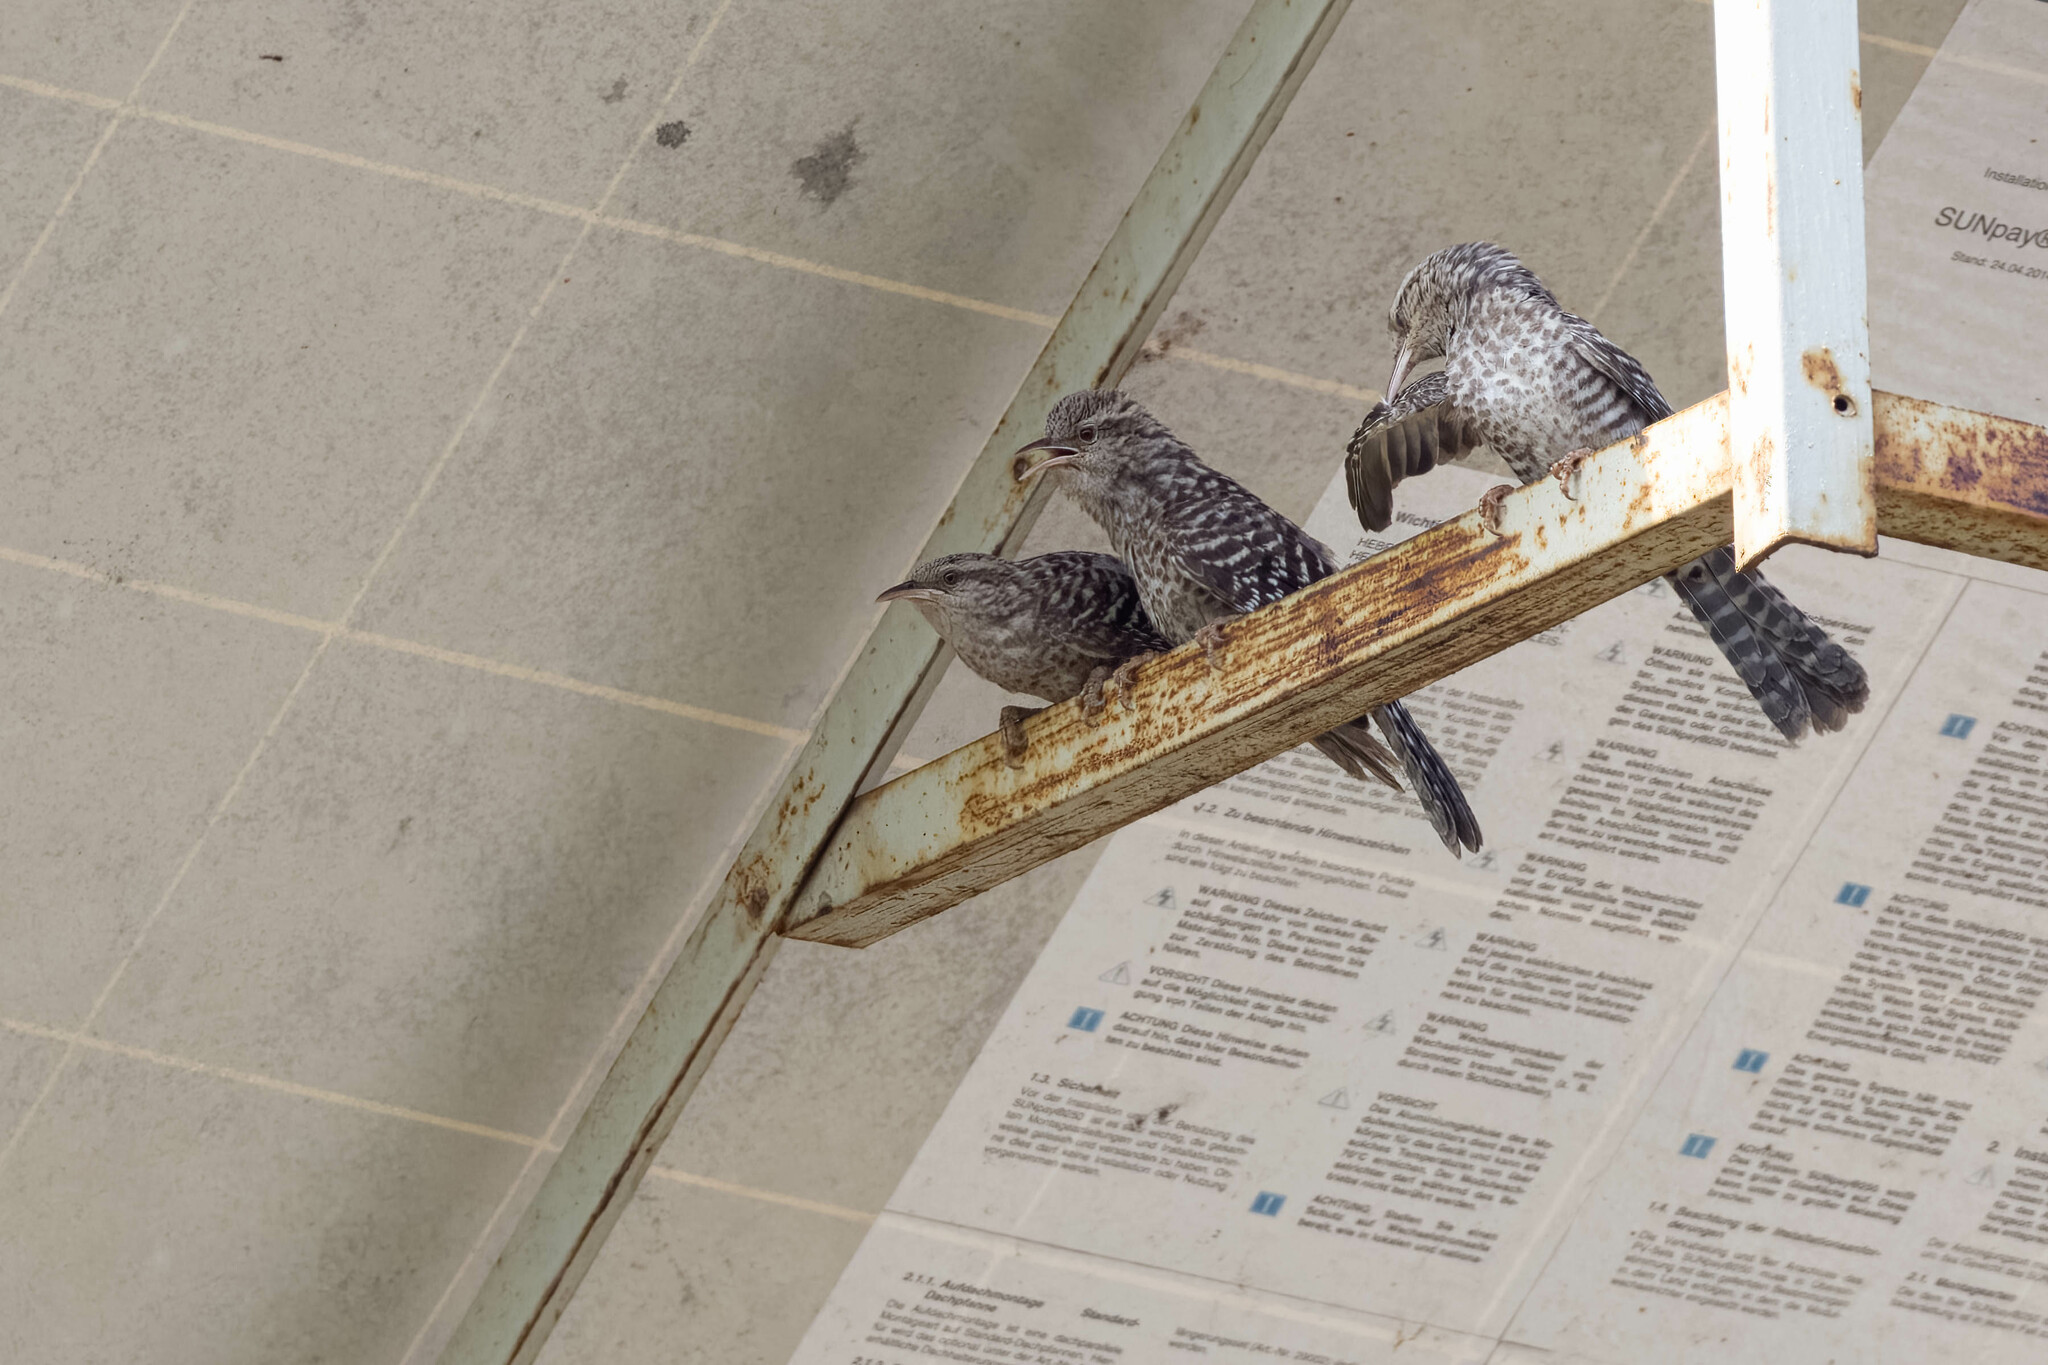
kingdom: Animalia
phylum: Chordata
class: Aves
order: Passeriformes
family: Troglodytidae
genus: Campylorhynchus
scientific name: Campylorhynchus fasciatus
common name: Fasciated wren
